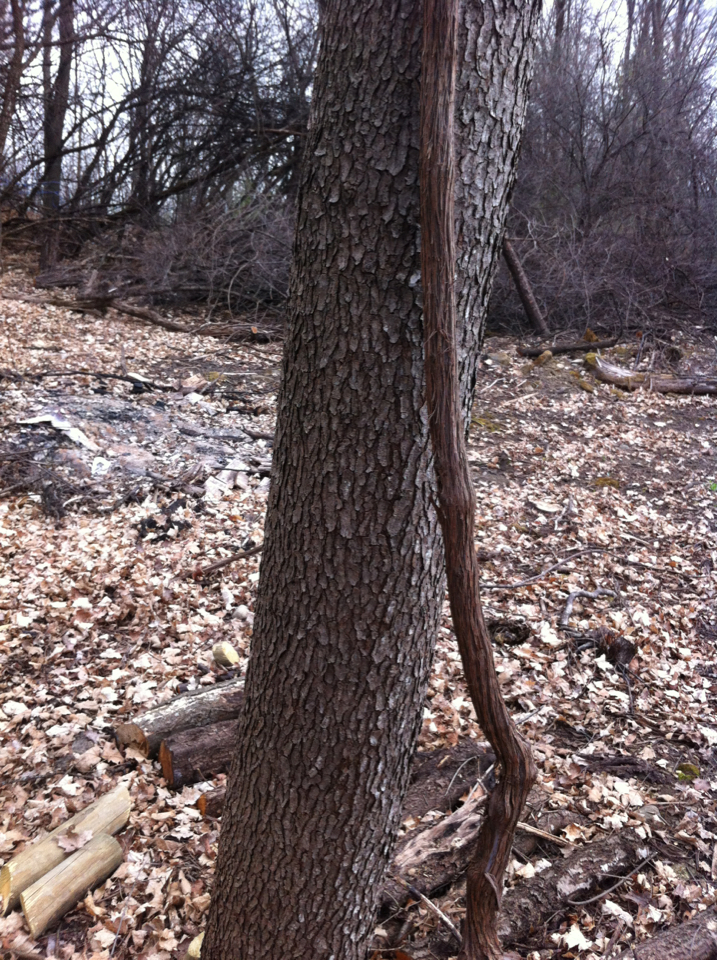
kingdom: Plantae
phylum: Tracheophyta
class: Magnoliopsida
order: Rosales
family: Rosaceae
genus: Prunus
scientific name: Prunus serotina
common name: Black cherry
